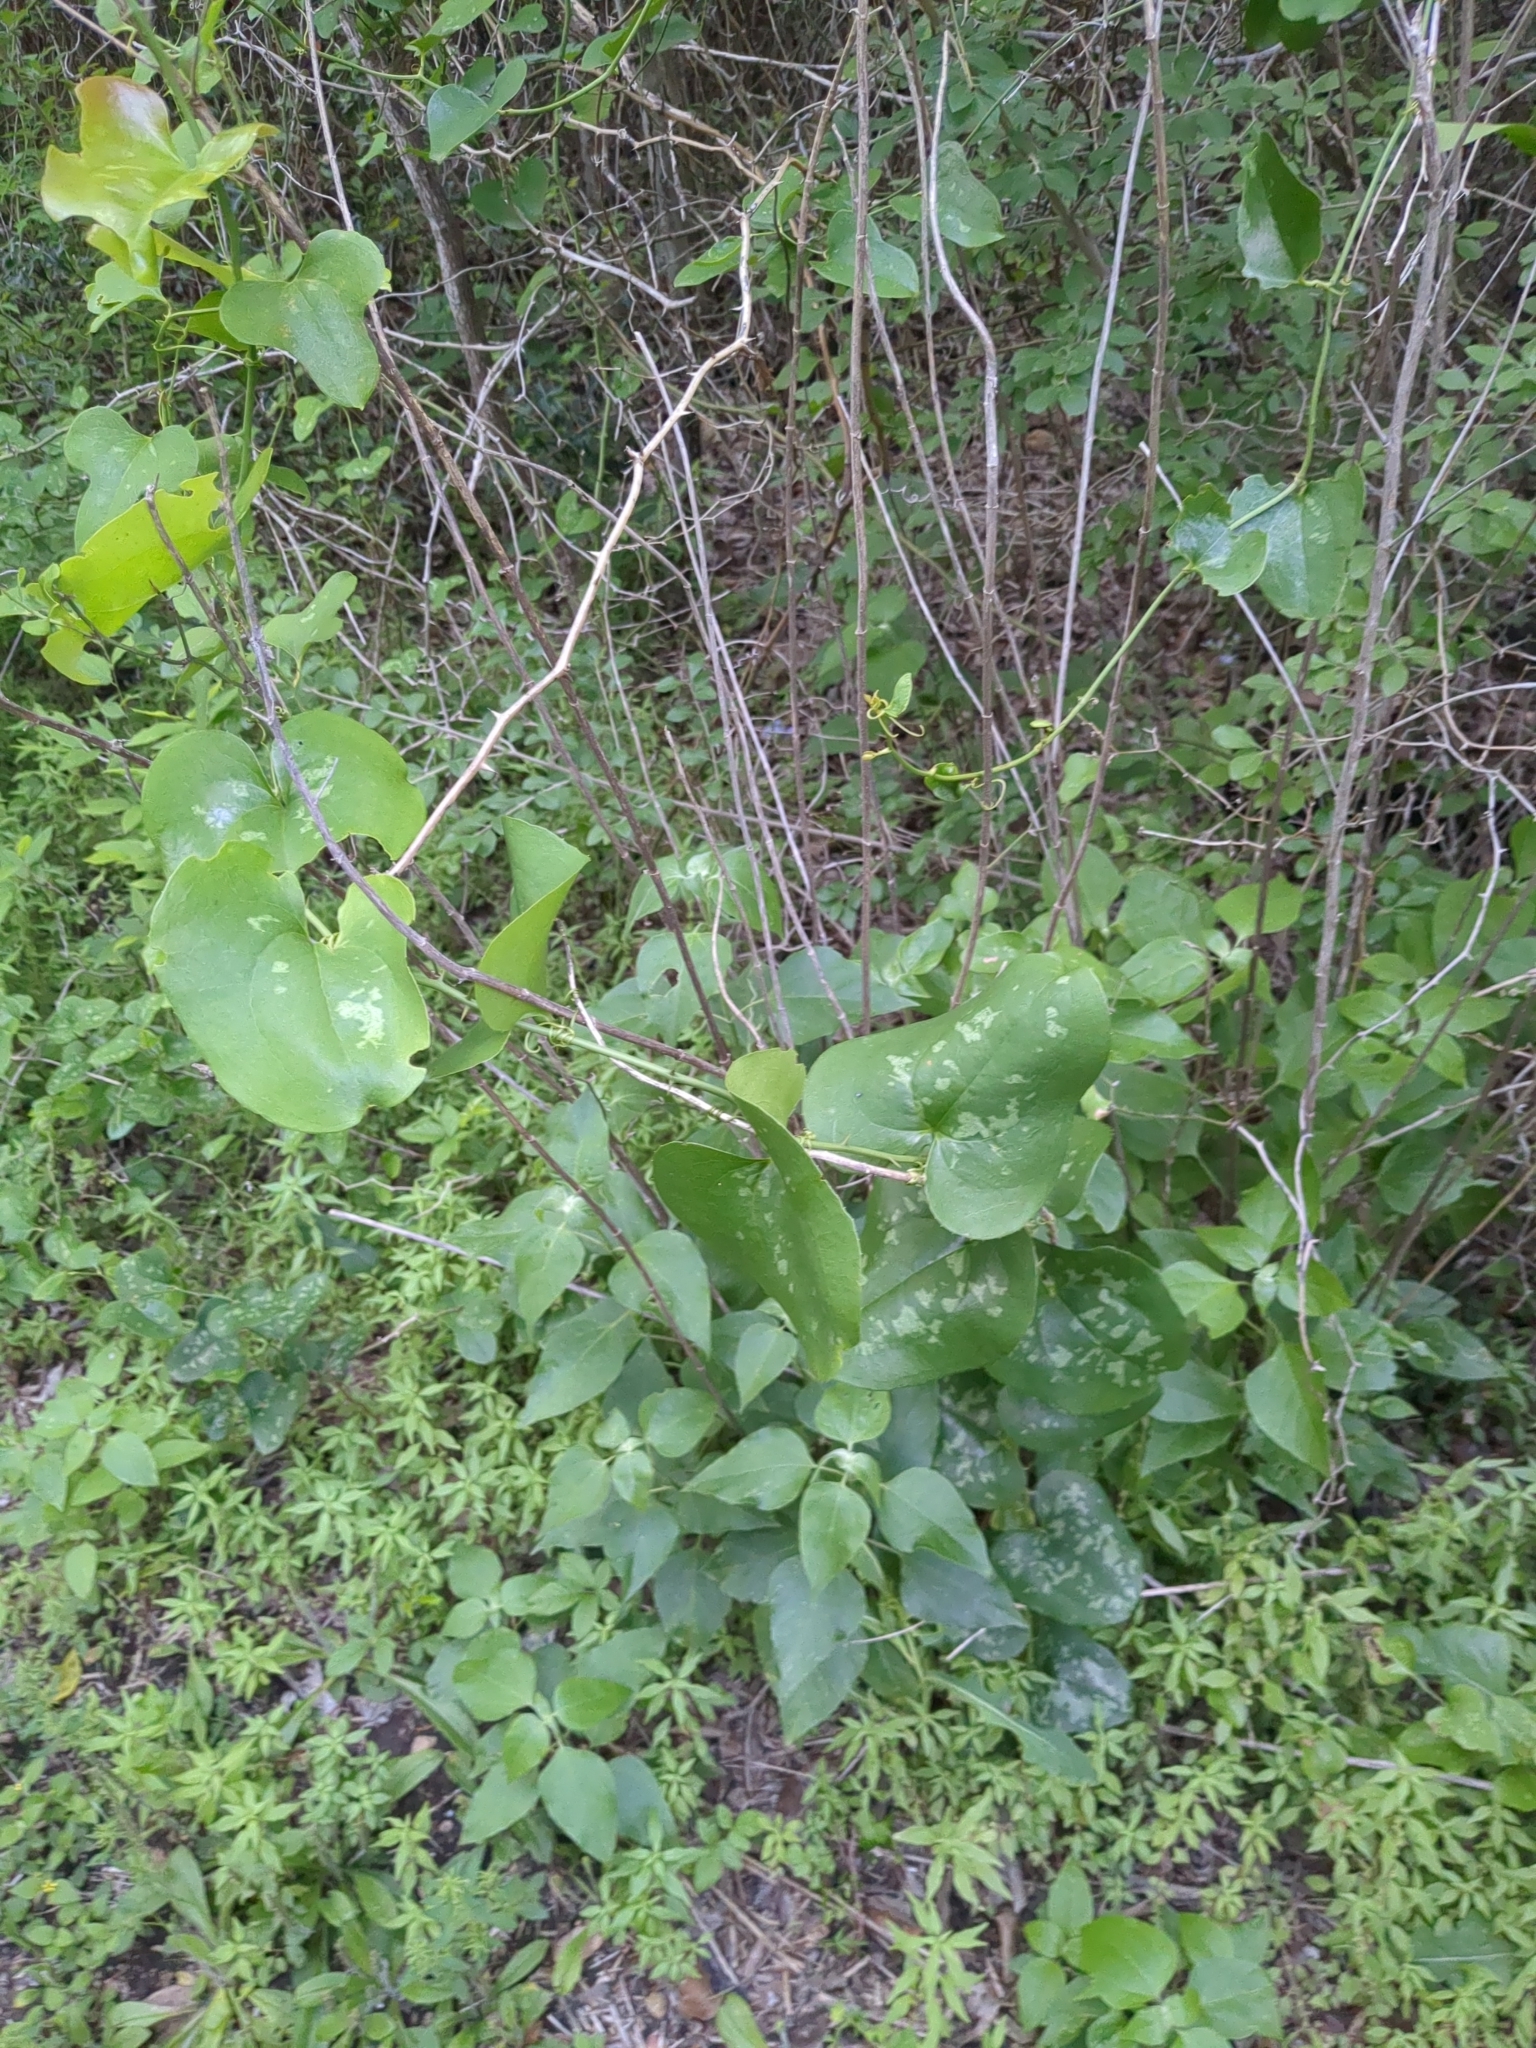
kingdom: Plantae
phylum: Tracheophyta
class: Liliopsida
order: Liliales
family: Smilacaceae
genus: Smilax
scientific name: Smilax bona-nox
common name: Catbrier
